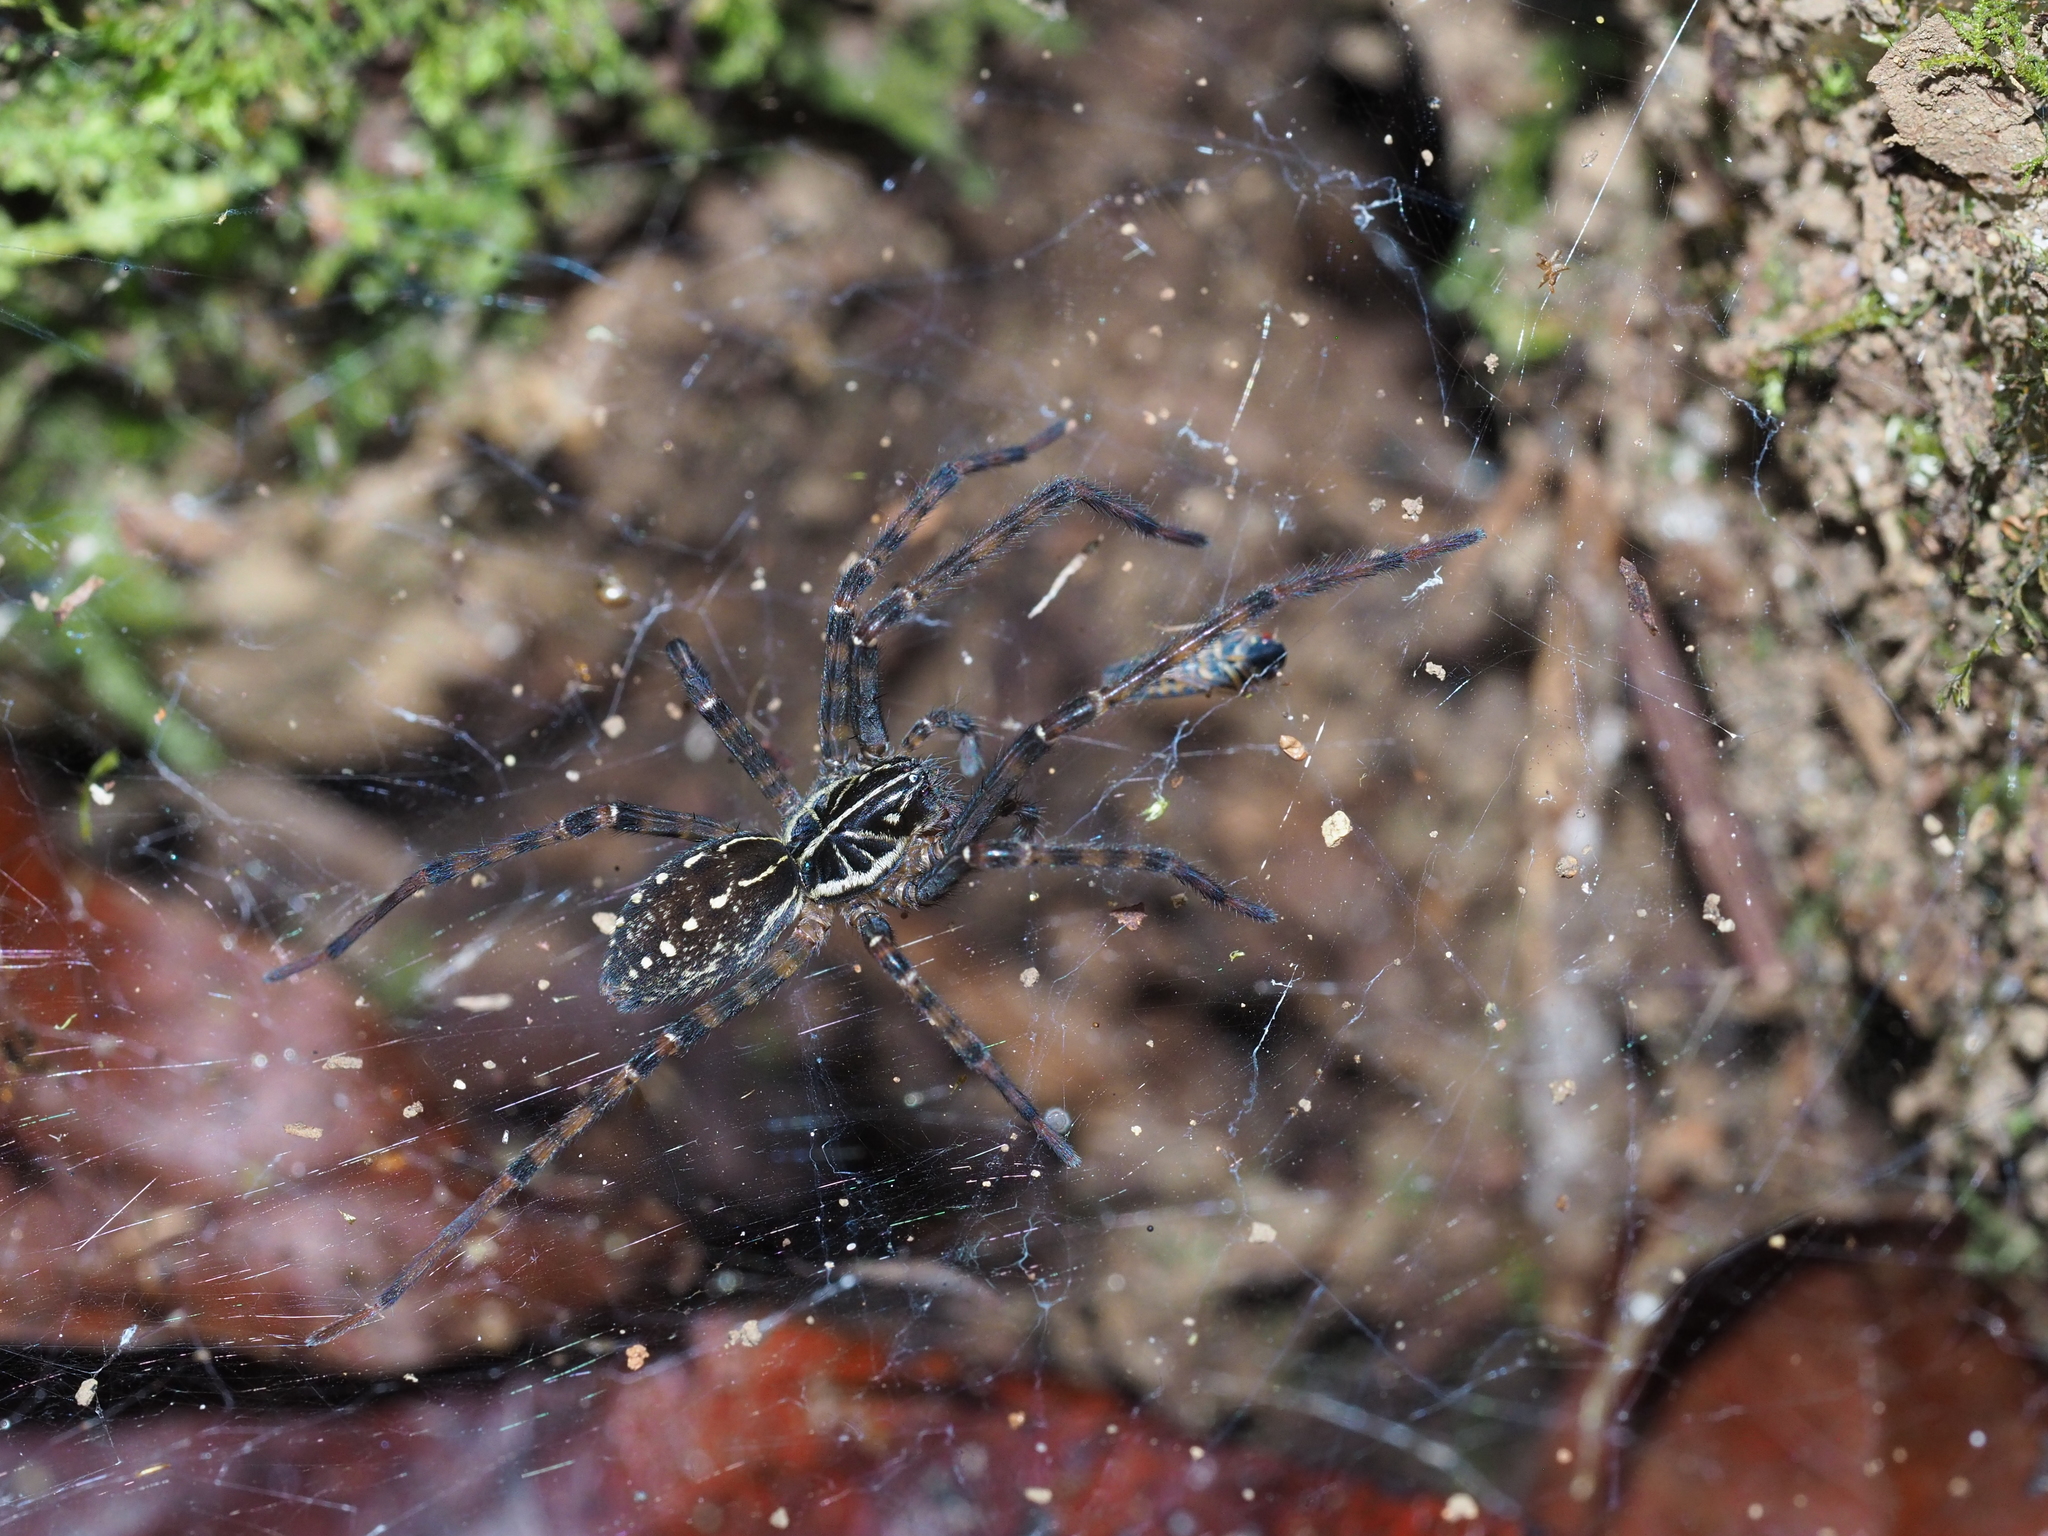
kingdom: Animalia
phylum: Arthropoda
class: Arachnida
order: Araneae
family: Zoropsidae
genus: Tengella
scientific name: Tengella radiata
